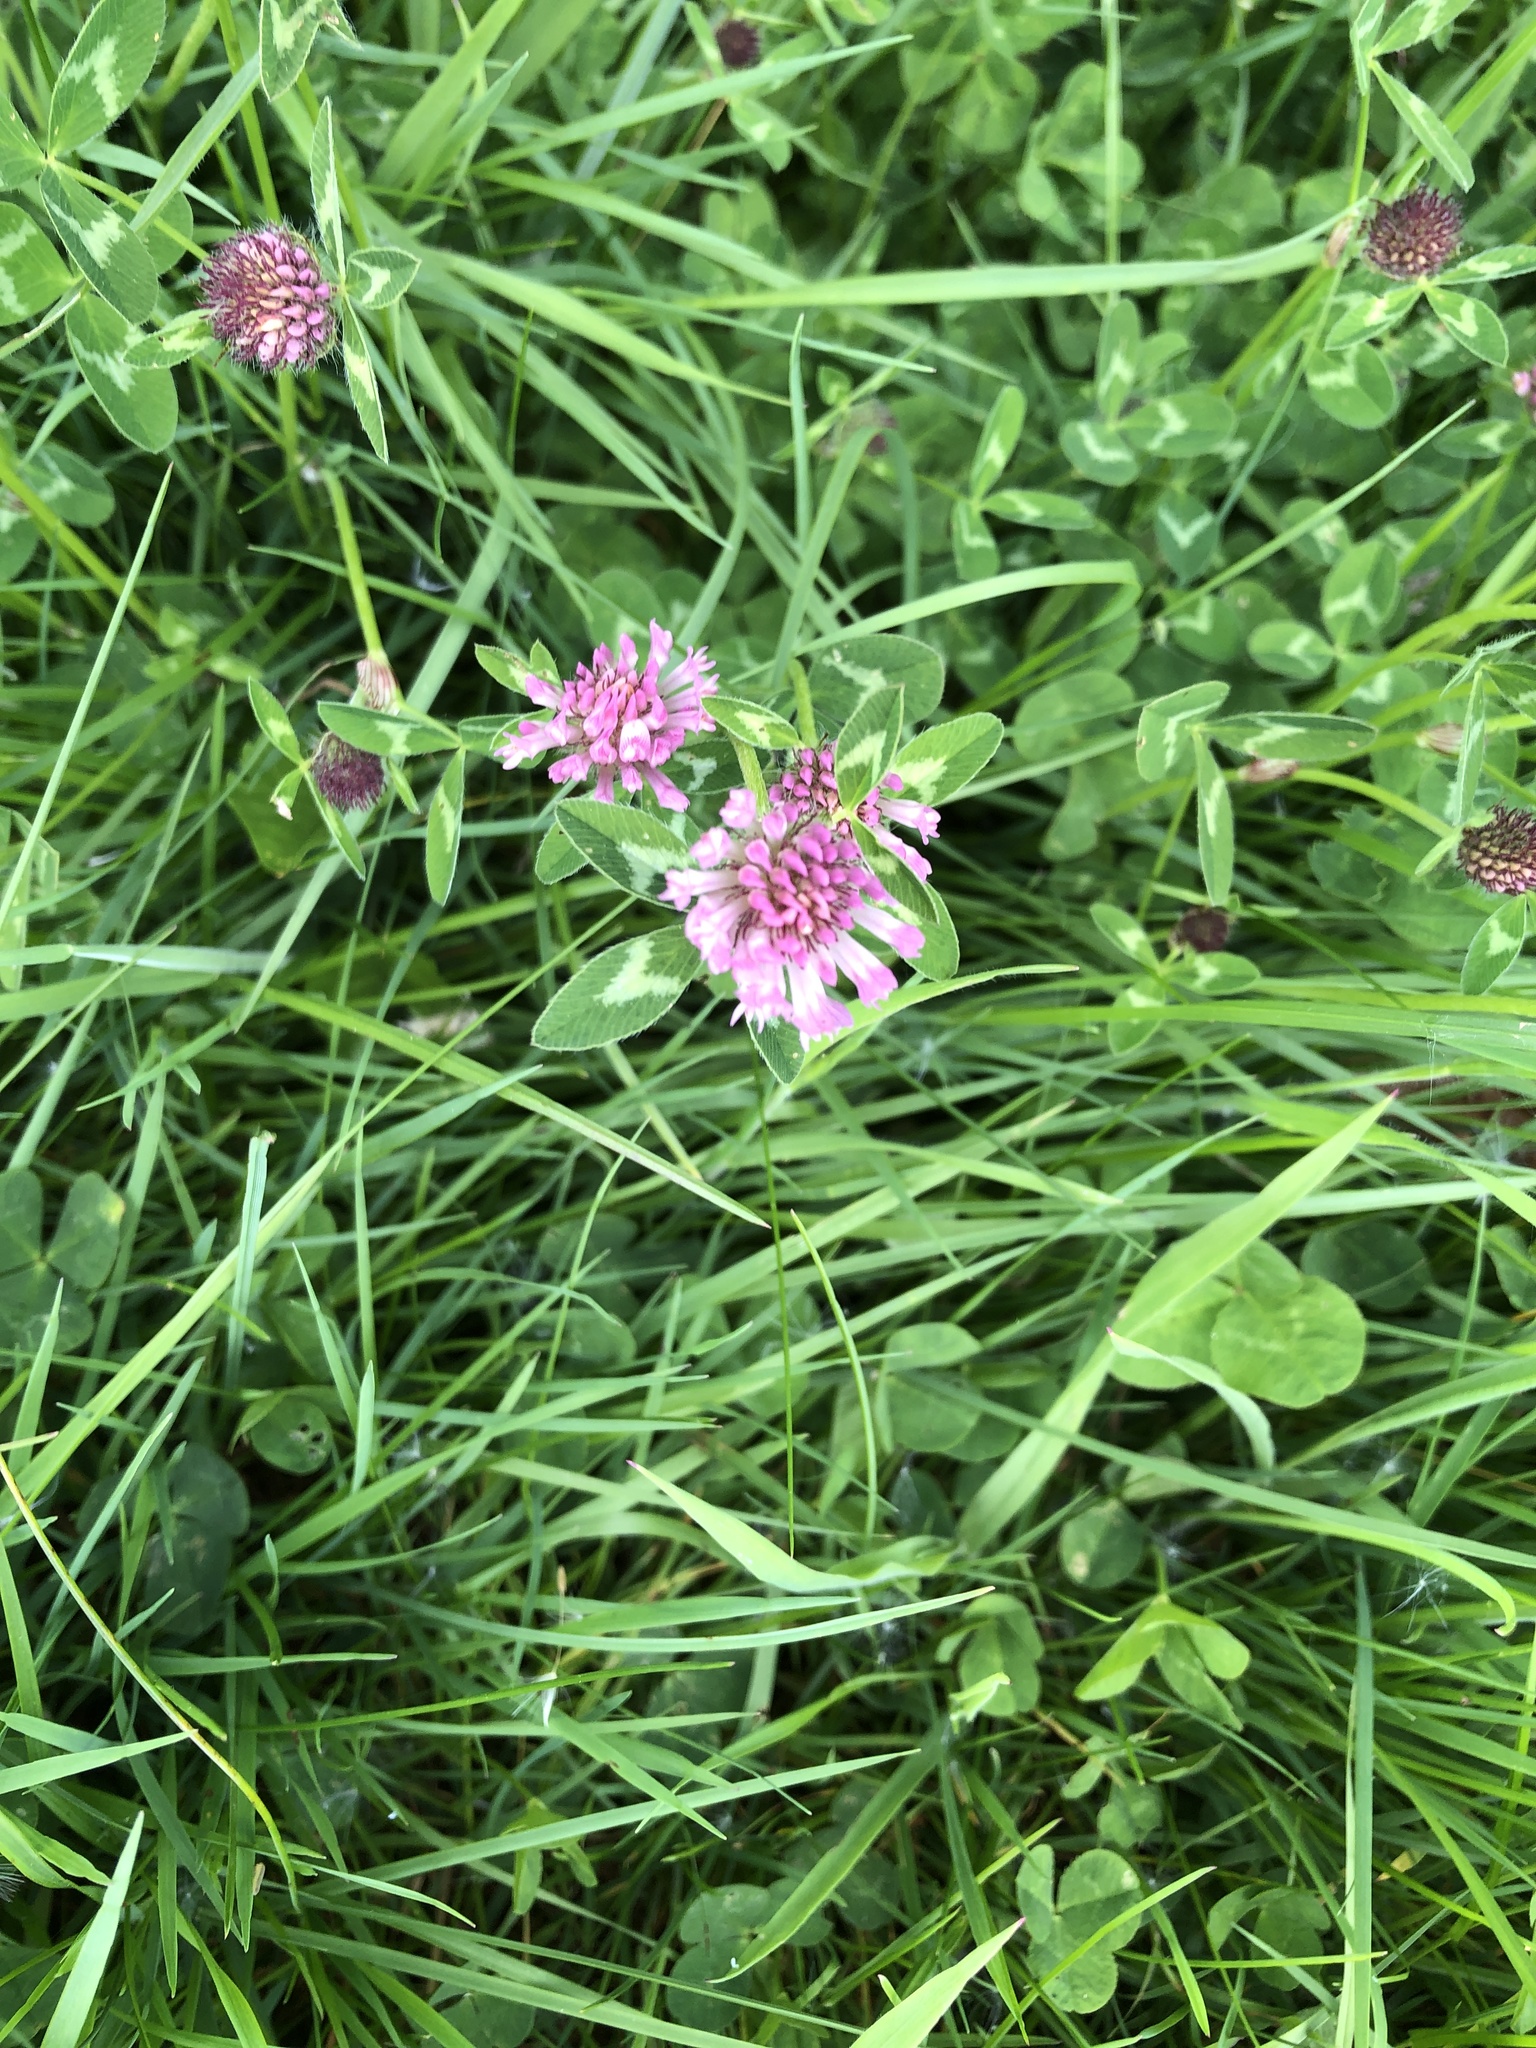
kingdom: Plantae
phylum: Tracheophyta
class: Magnoliopsida
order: Fabales
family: Fabaceae
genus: Trifolium
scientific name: Trifolium pratense
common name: Red clover
